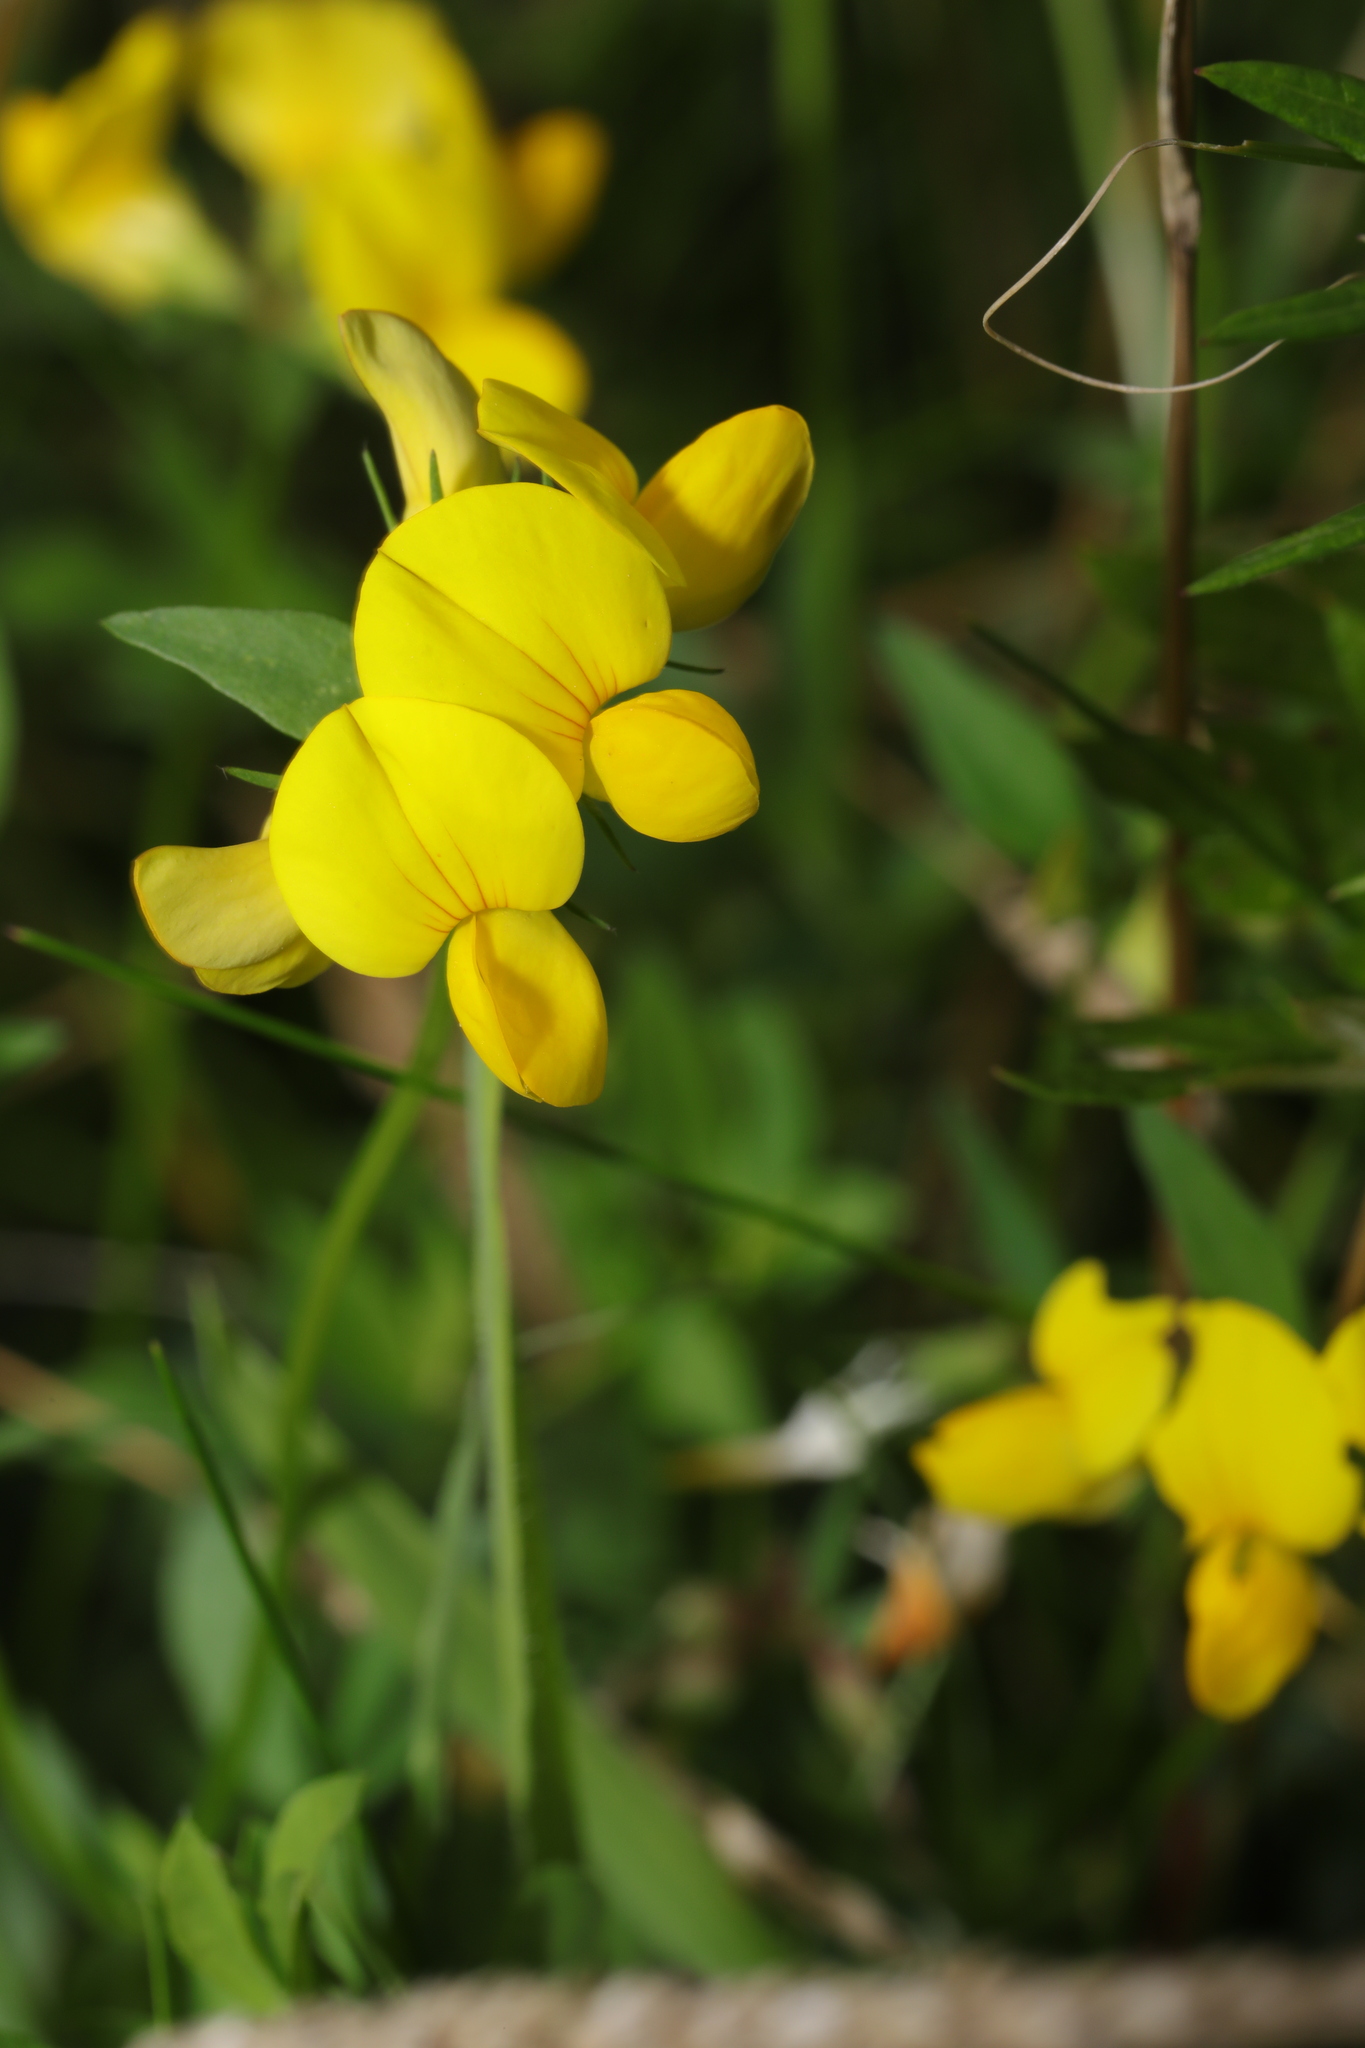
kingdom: Plantae
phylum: Tracheophyta
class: Magnoliopsida
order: Fabales
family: Fabaceae
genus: Lotus
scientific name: Lotus corniculatus
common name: Common bird's-foot-trefoil
